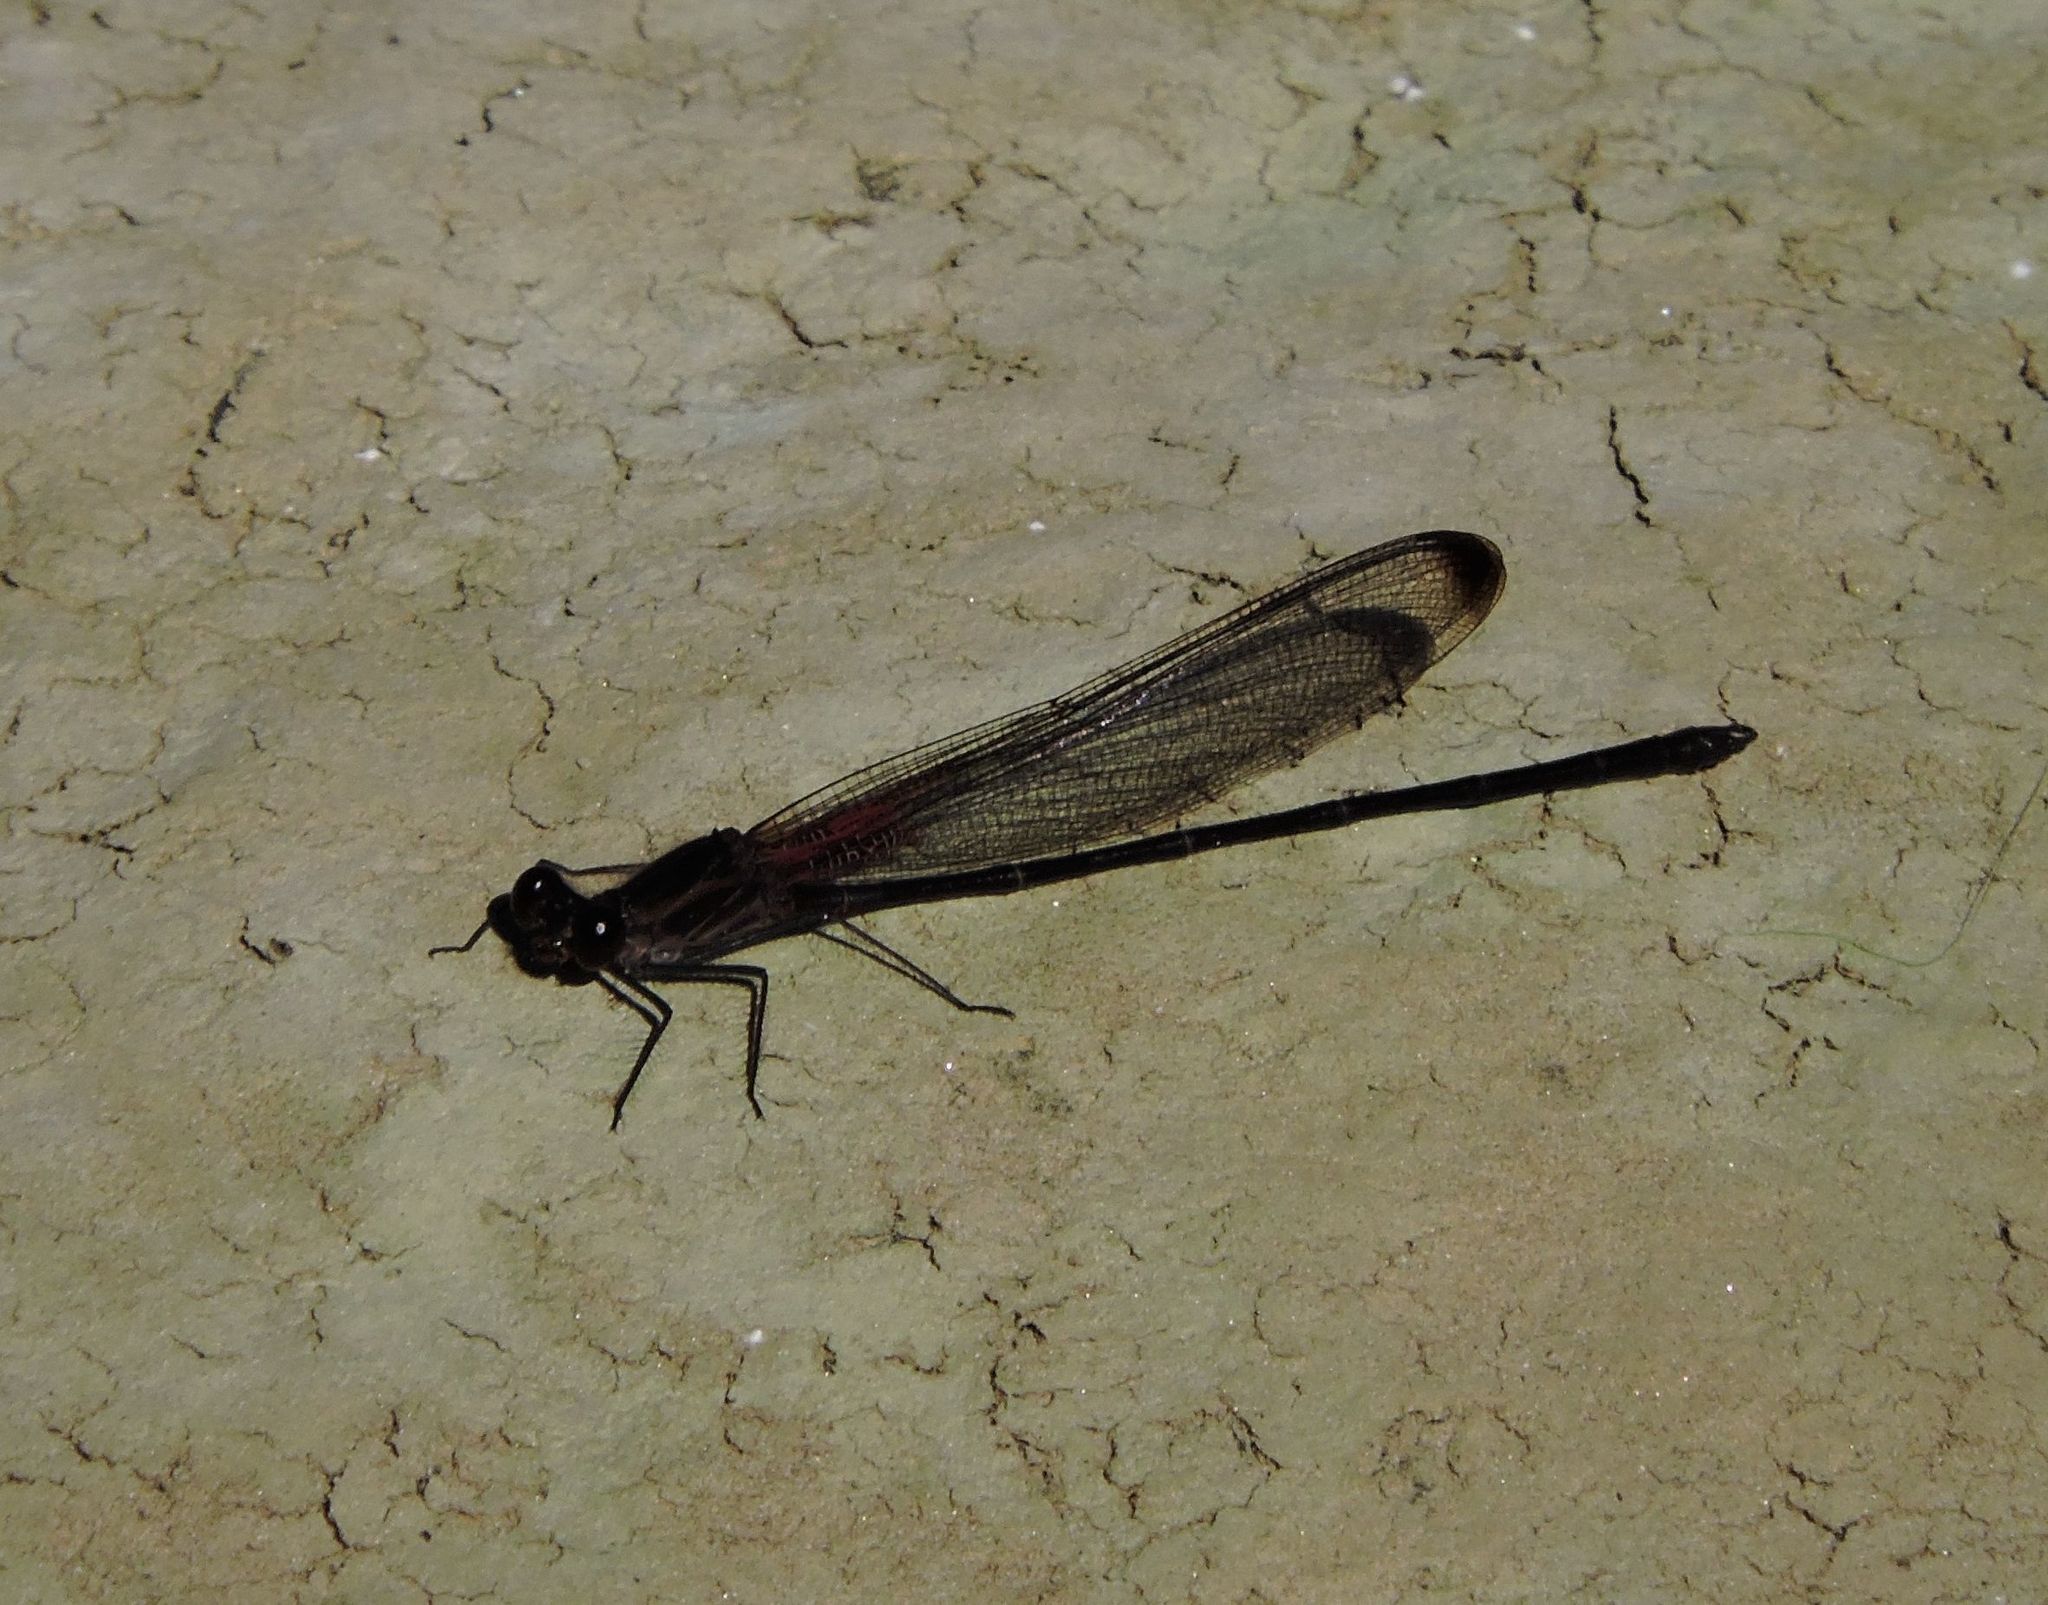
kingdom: Animalia
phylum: Arthropoda
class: Insecta
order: Odonata
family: Calopterygidae
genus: Hetaerina
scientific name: Hetaerina titia
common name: Smoky rubyspot
